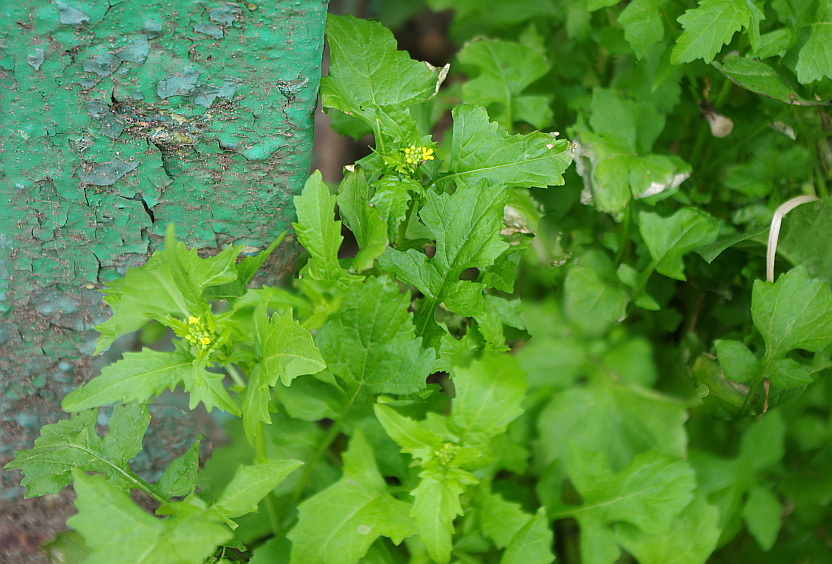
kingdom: Plantae
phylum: Tracheophyta
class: Magnoliopsida
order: Brassicales
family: Brassicaceae
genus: Sisymbrium
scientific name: Sisymbrium officinale
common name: Hedge mustard
